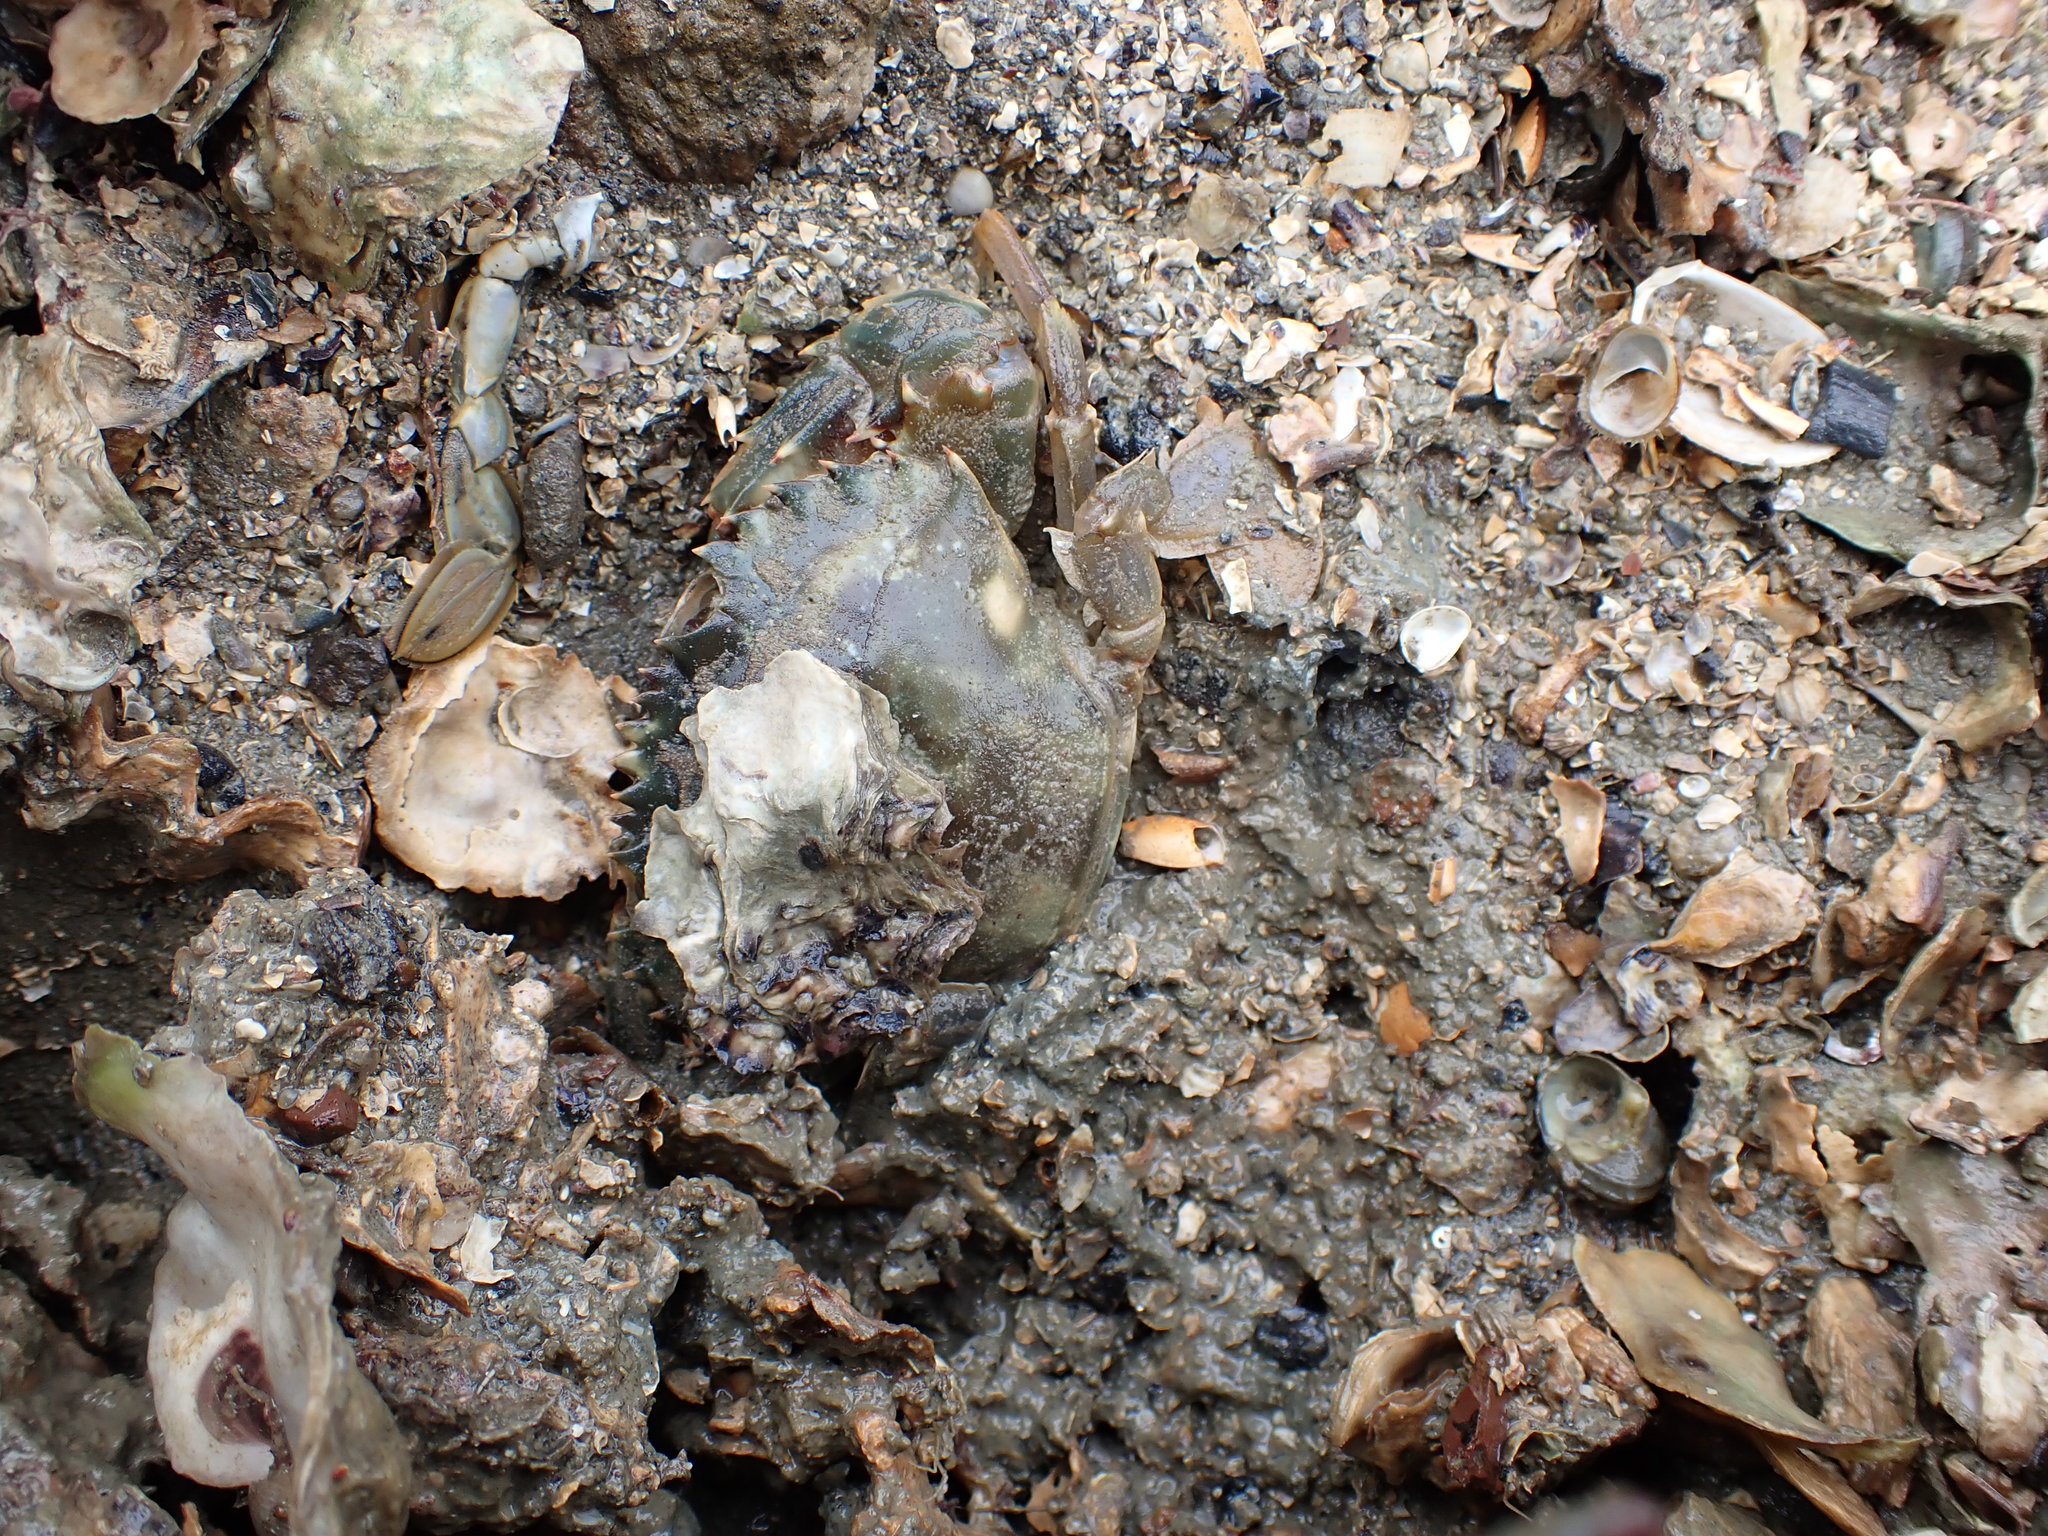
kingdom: Animalia
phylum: Arthropoda
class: Malacostraca
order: Decapoda
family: Portunidae
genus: Charybdis
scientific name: Charybdis japonica
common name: Asian paddle crab
